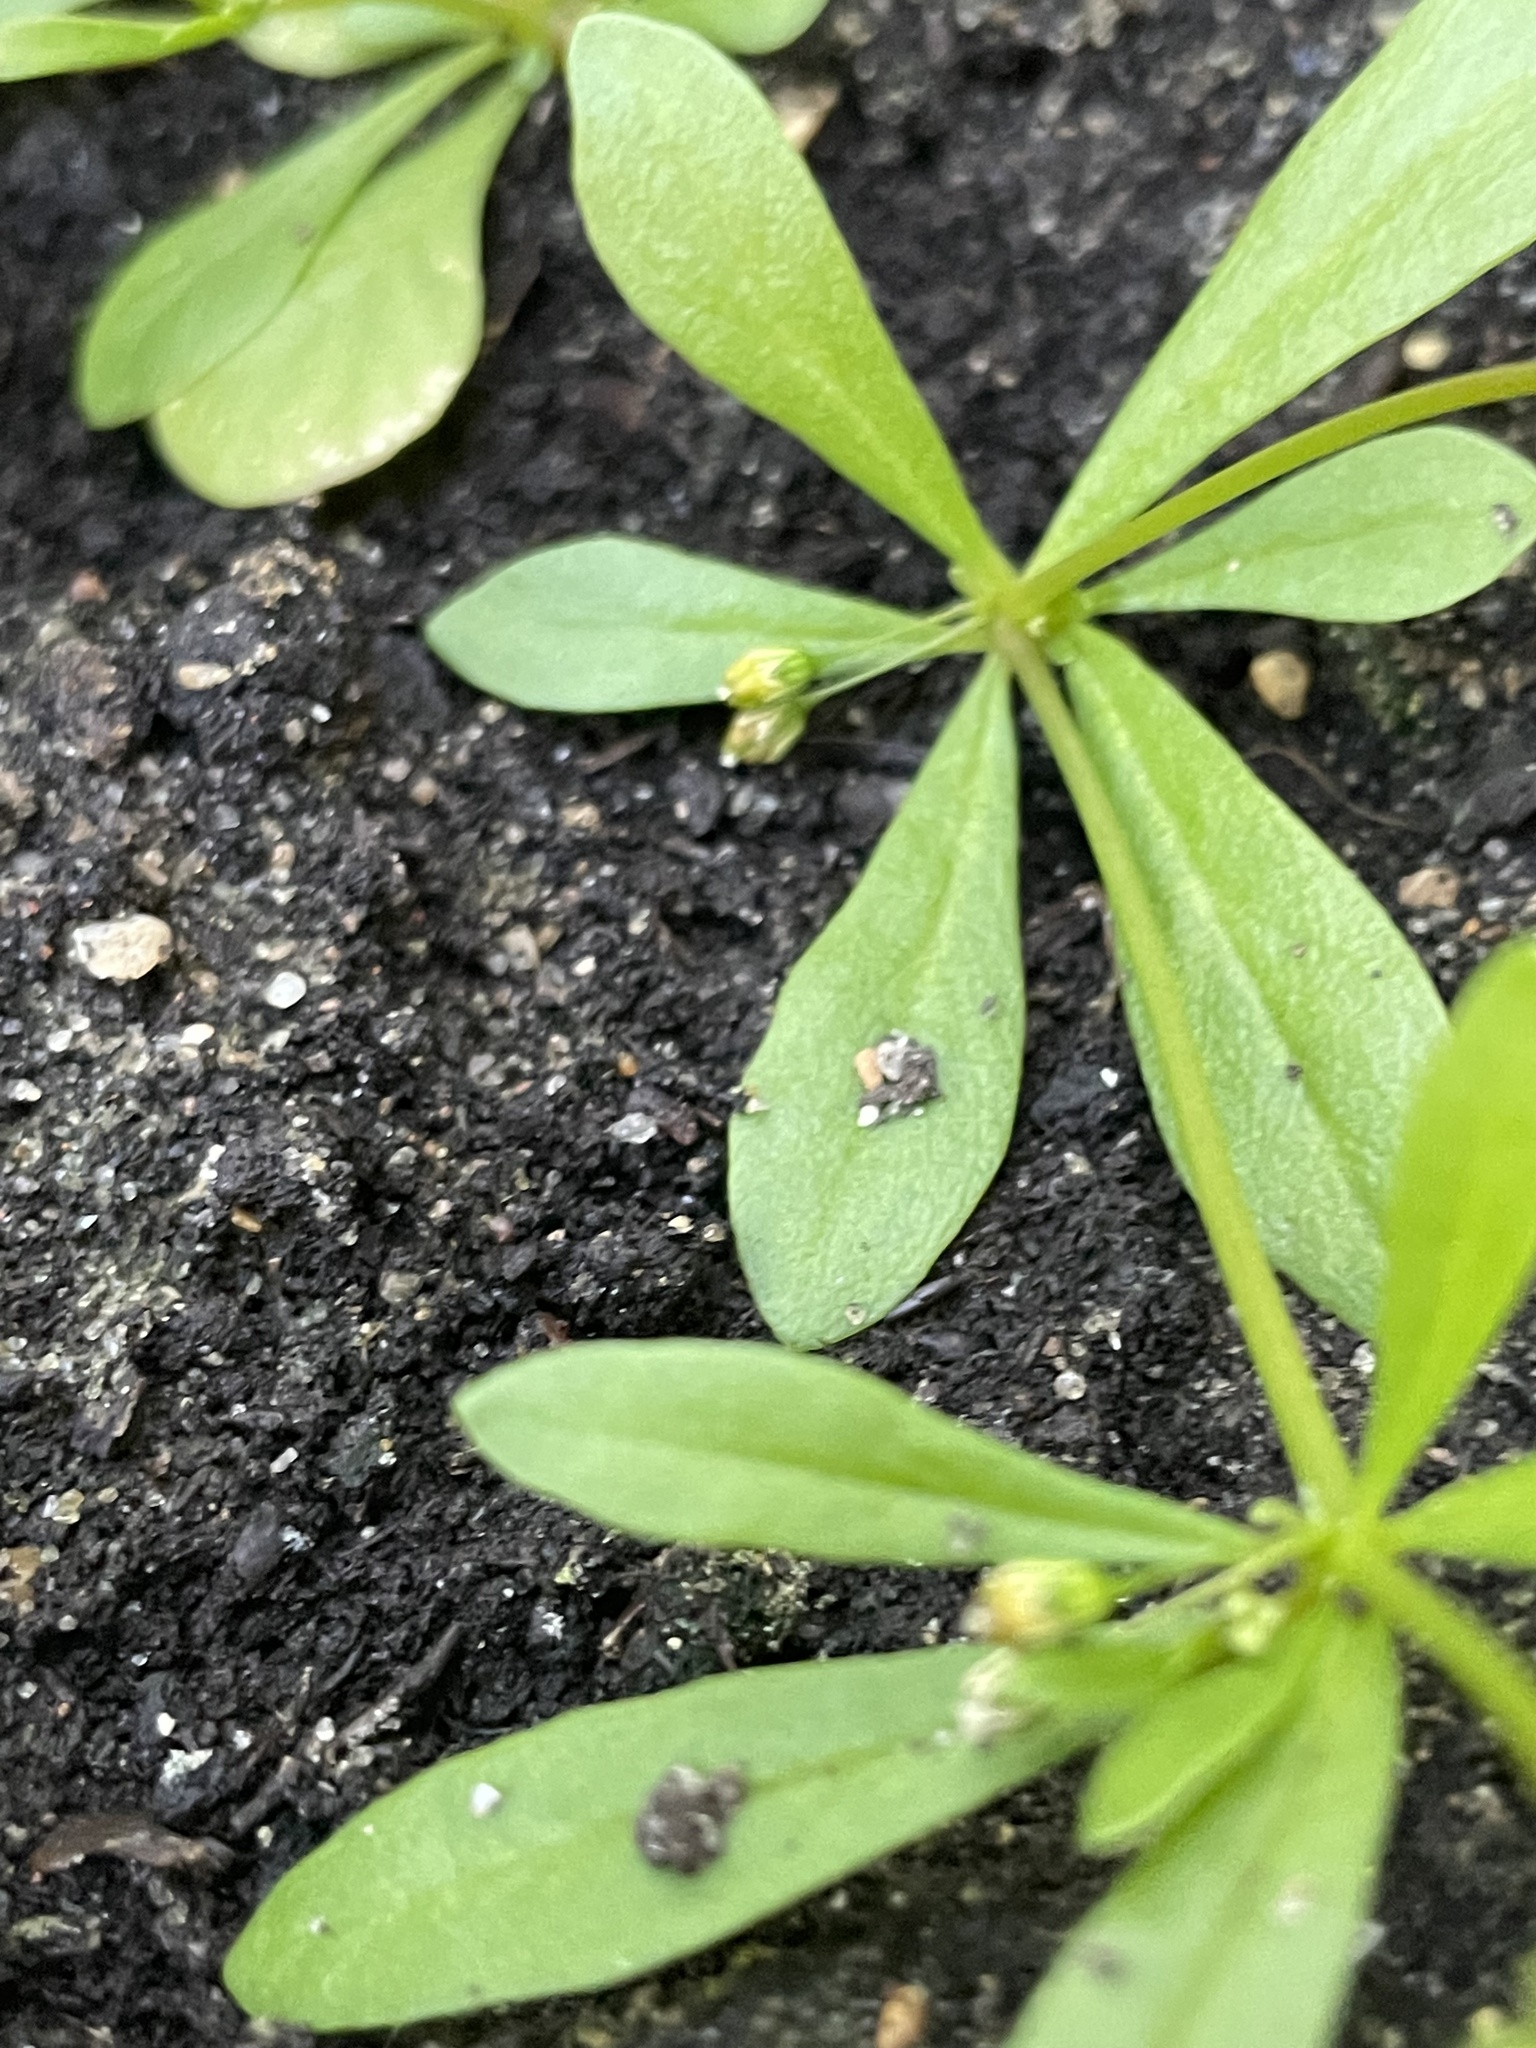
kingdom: Plantae
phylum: Tracheophyta
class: Magnoliopsida
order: Caryophyllales
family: Molluginaceae
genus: Mollugo
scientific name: Mollugo verticillata
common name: Green carpetweed
